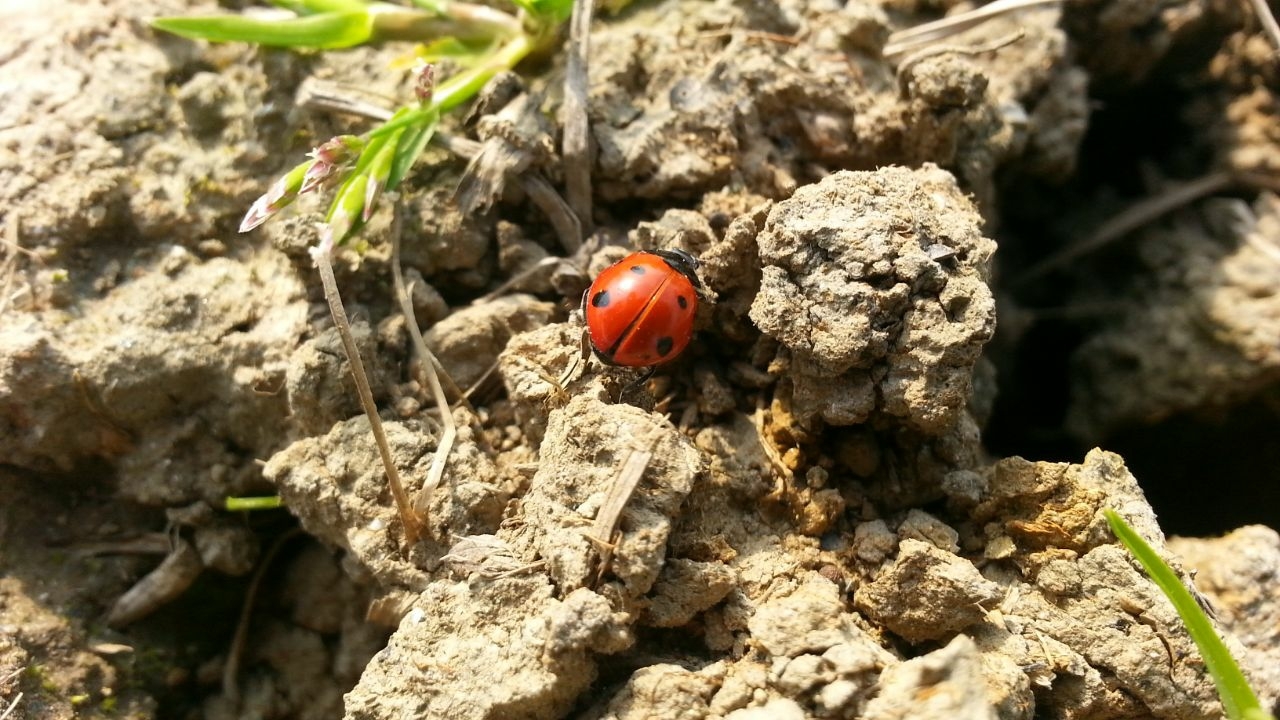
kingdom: Animalia
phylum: Arthropoda
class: Insecta
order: Coleoptera
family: Coccinellidae
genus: Coccinella
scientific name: Coccinella septempunctata
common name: Sevenspotted lady beetle
